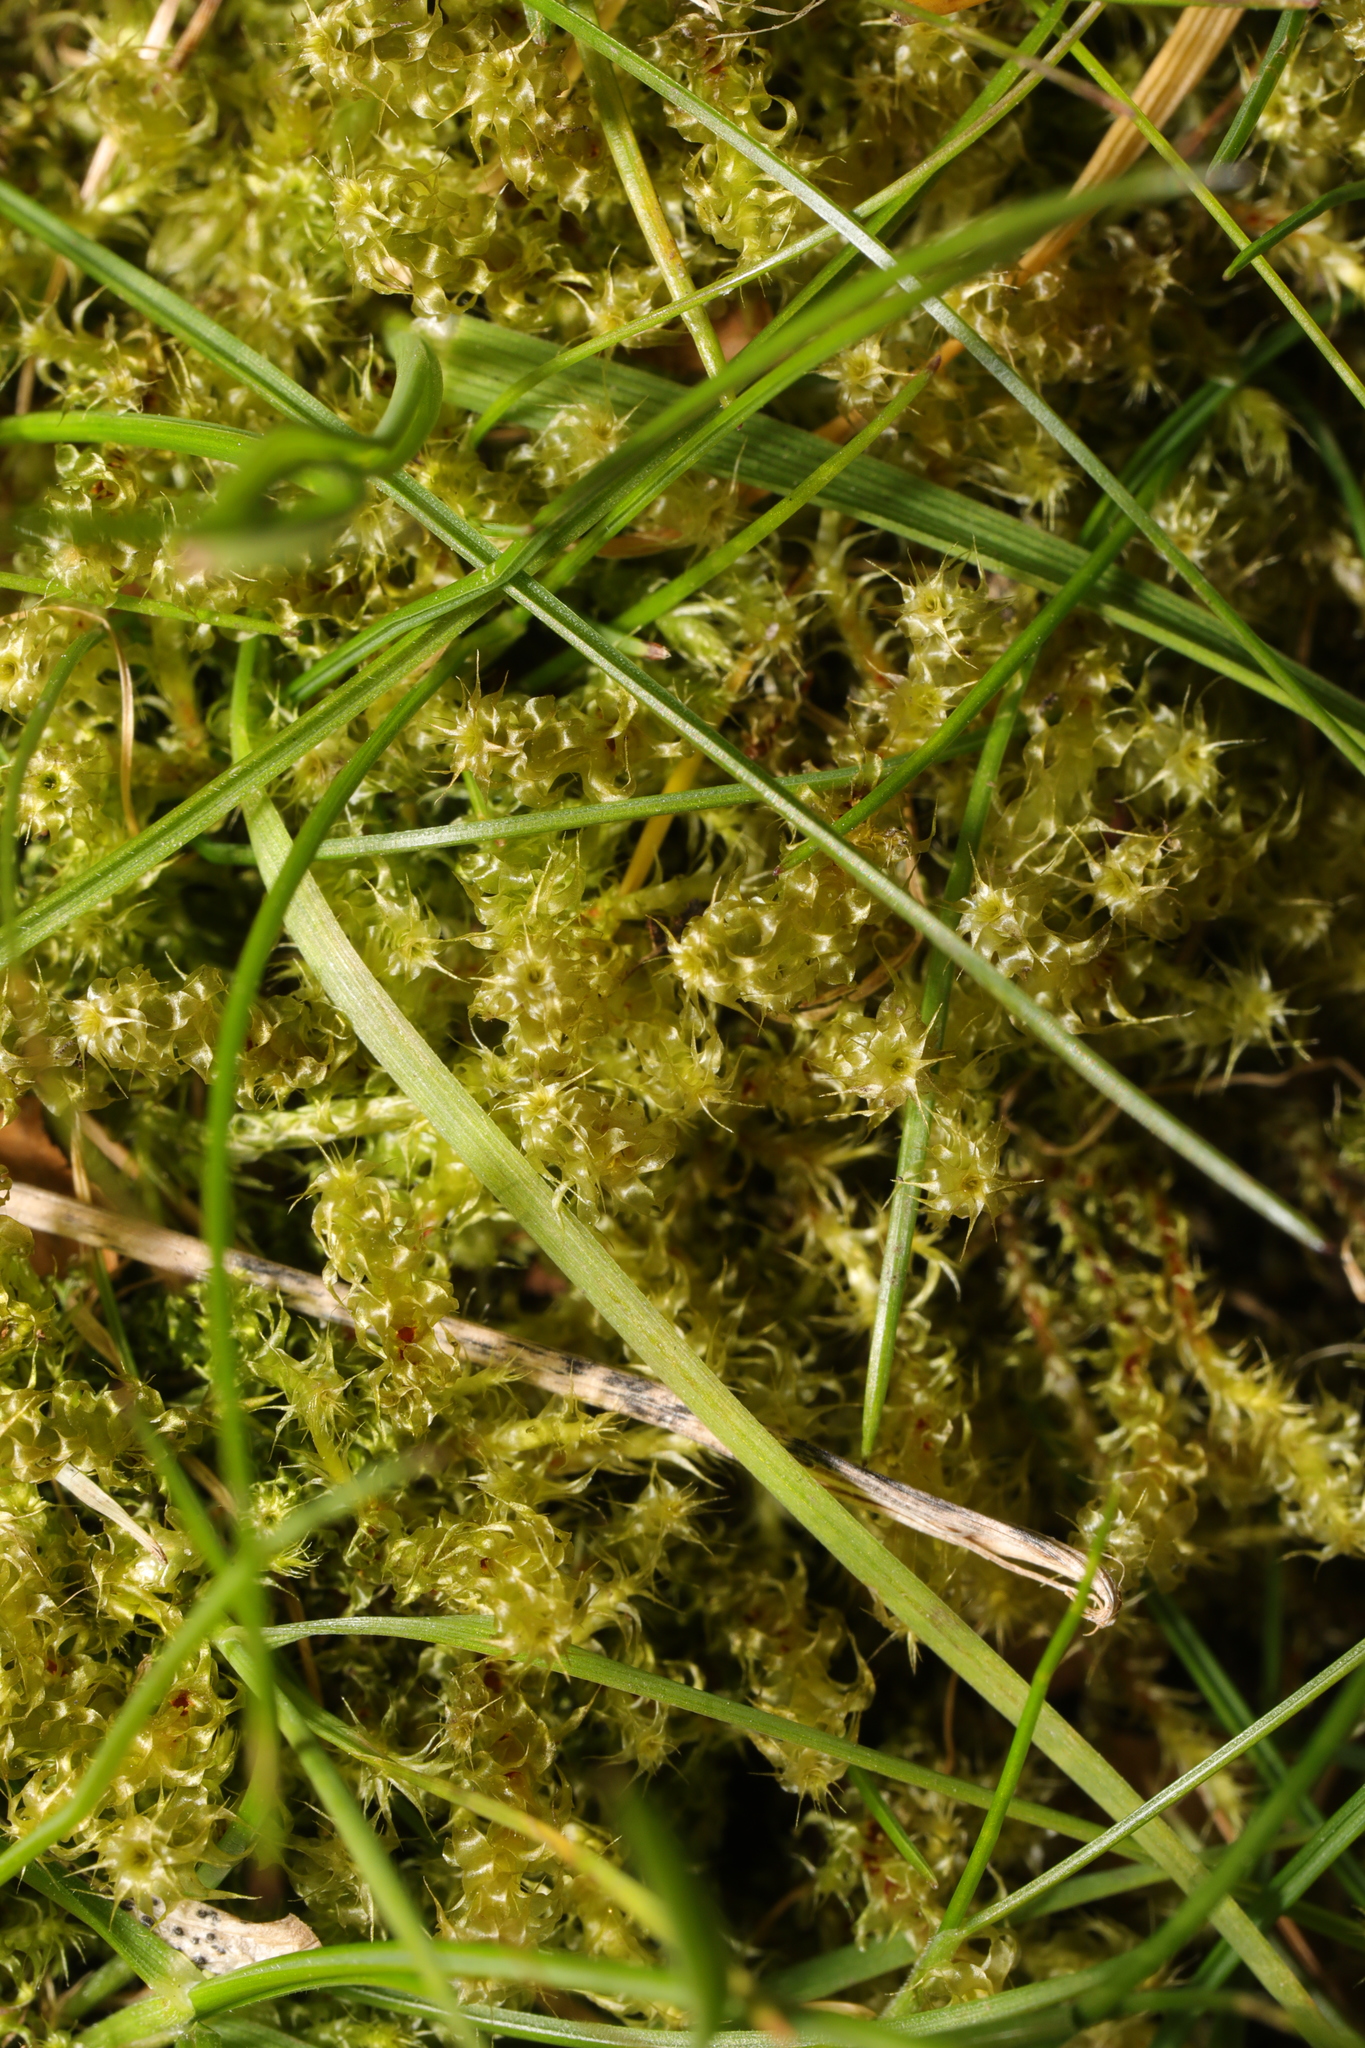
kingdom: Plantae
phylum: Bryophyta
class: Bryopsida
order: Hypnales
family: Hylocomiaceae
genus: Rhytidiadelphus
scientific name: Rhytidiadelphus squarrosus
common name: Springy turf-moss
